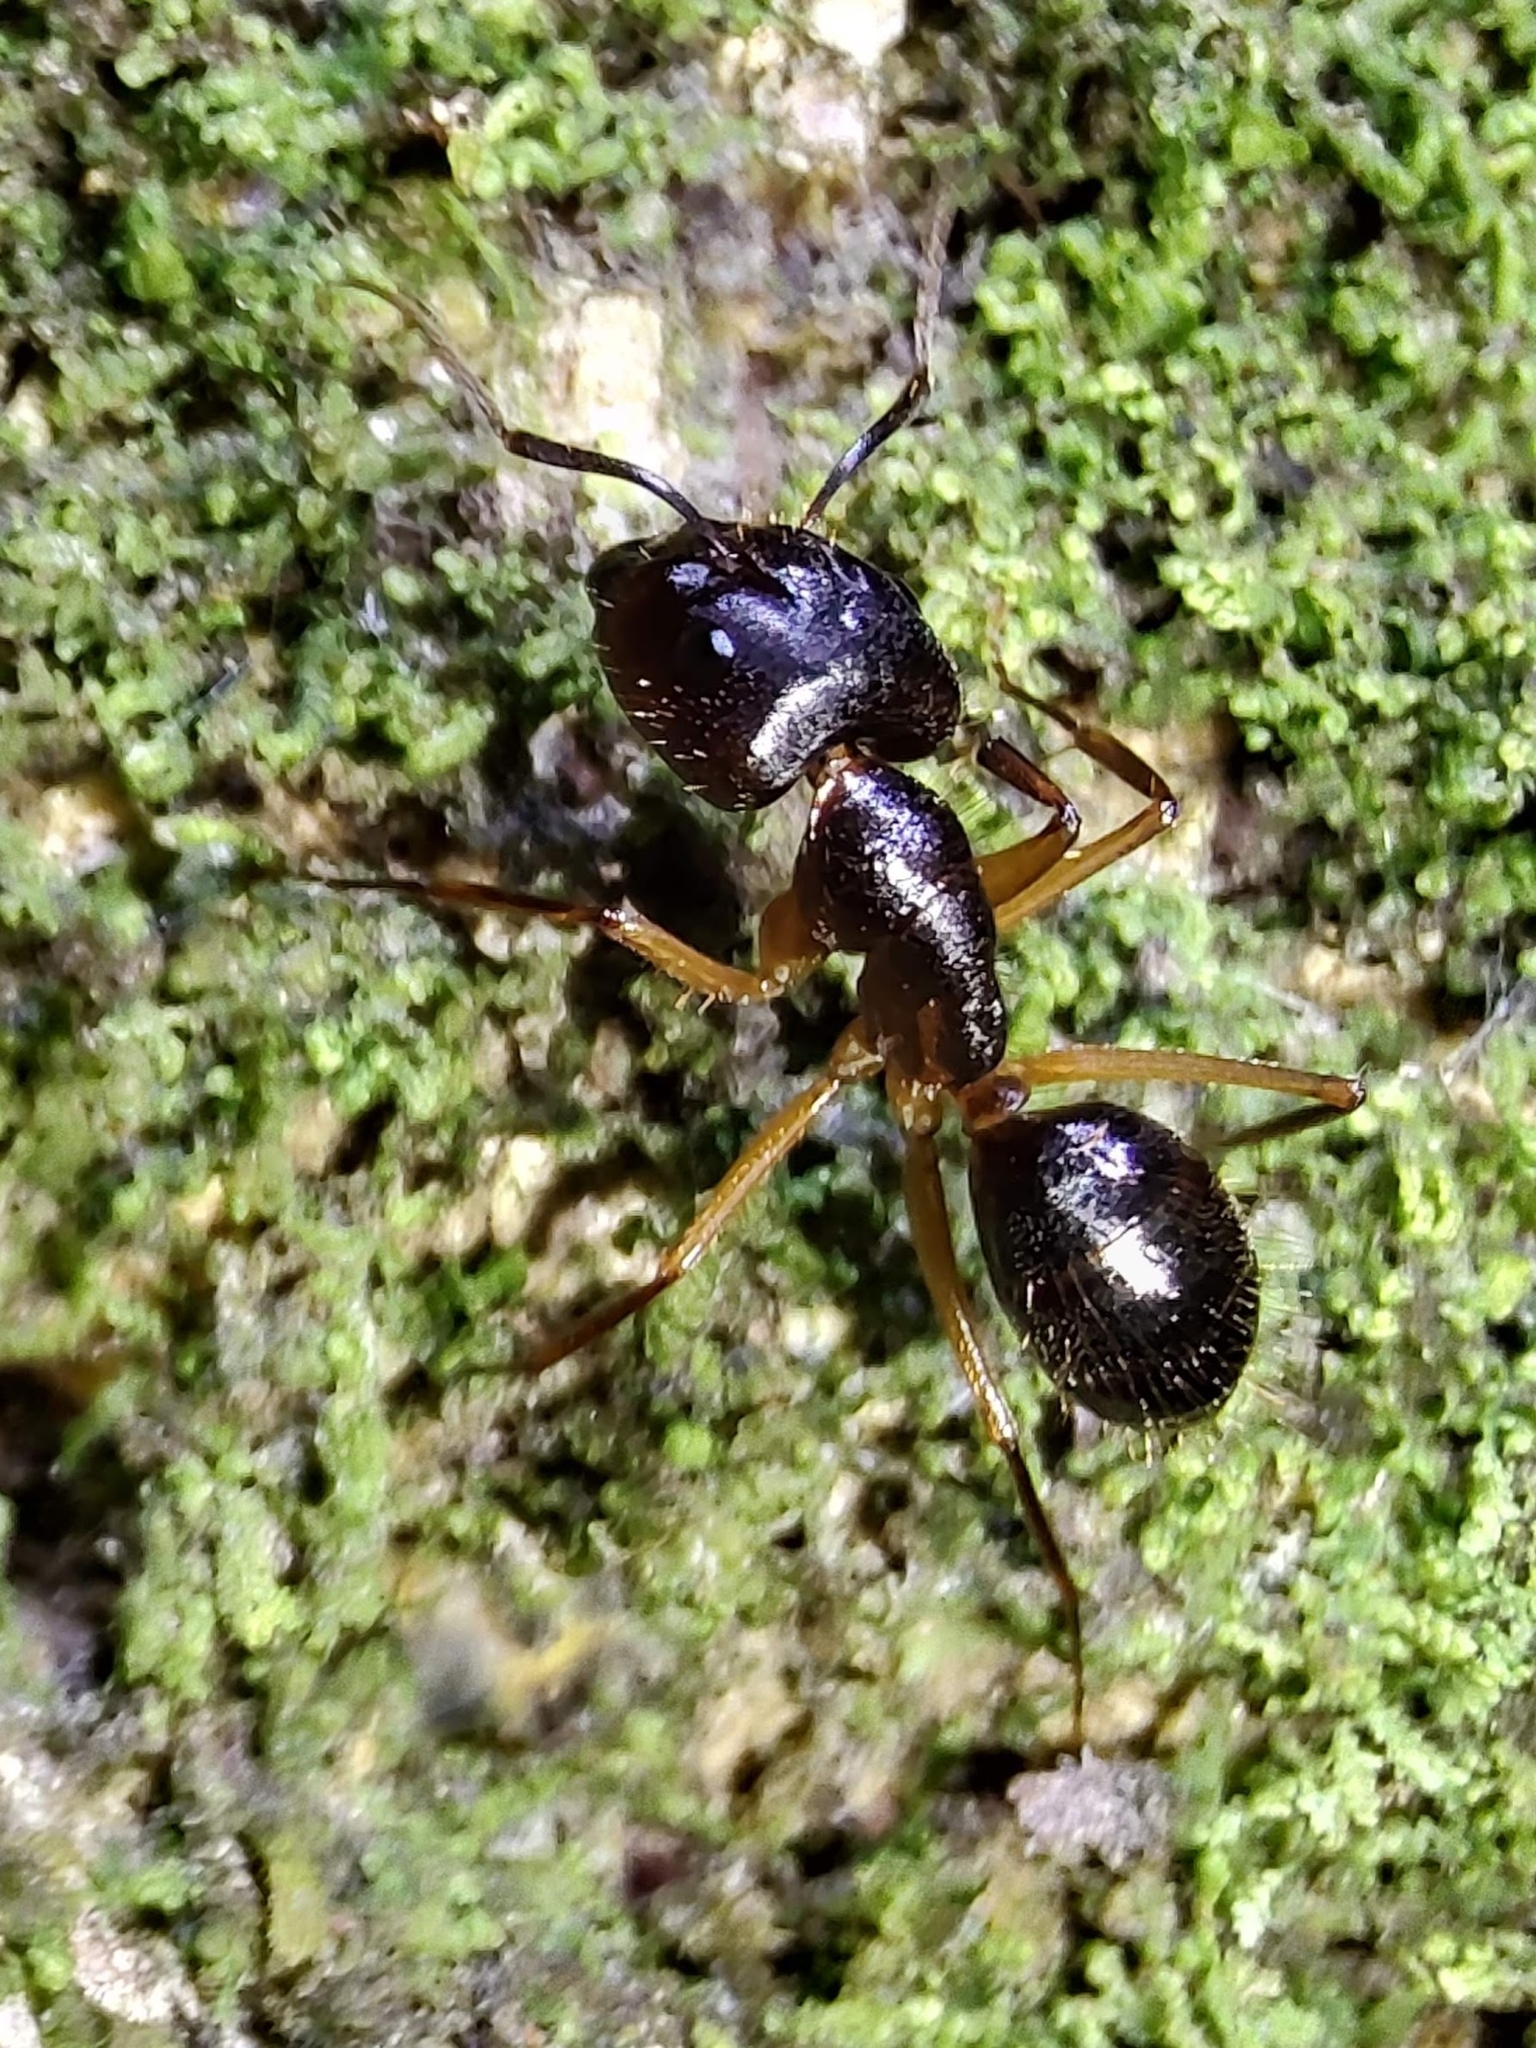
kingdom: Animalia
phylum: Arthropoda
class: Insecta
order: Hymenoptera
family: Formicidae
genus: Camponotus
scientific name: Camponotus melanoticus
